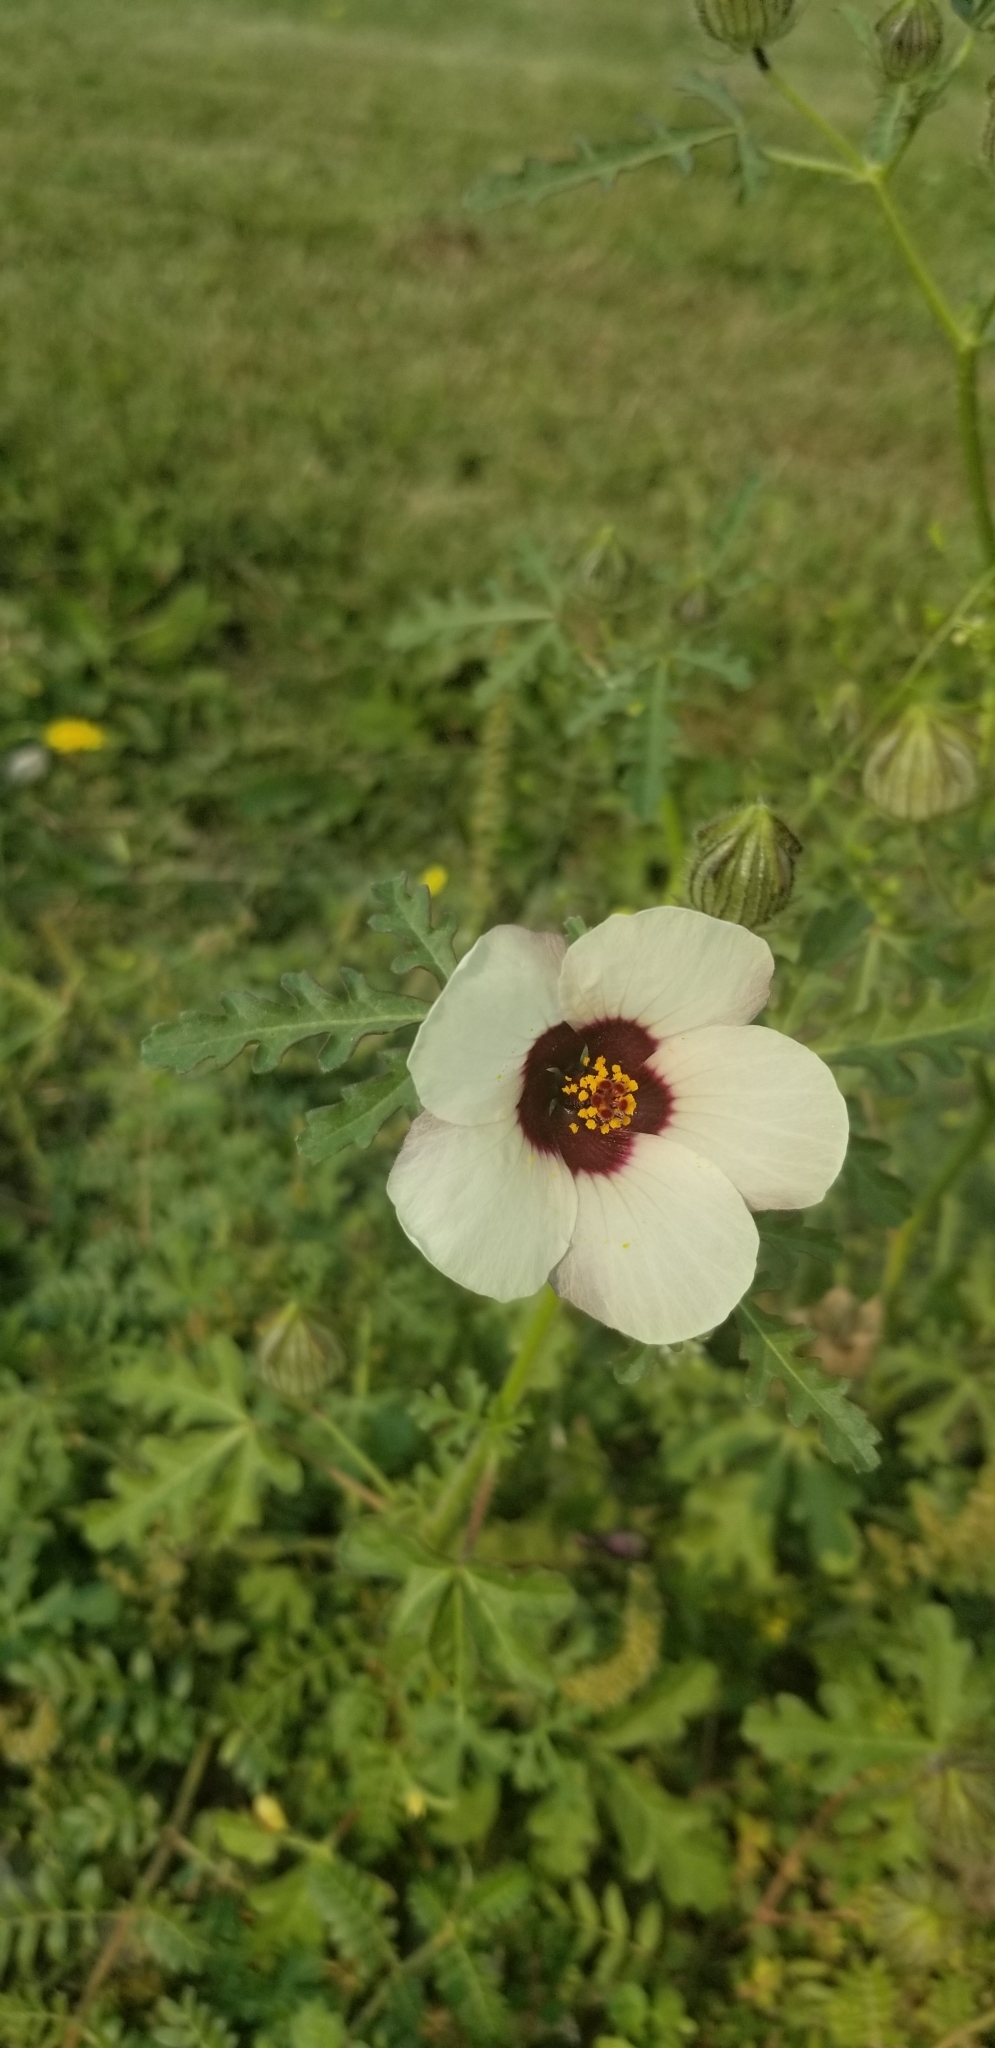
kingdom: Plantae
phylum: Tracheophyta
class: Magnoliopsida
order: Malvales
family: Malvaceae
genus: Hibiscus
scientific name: Hibiscus trionum
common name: Bladder ketmia
